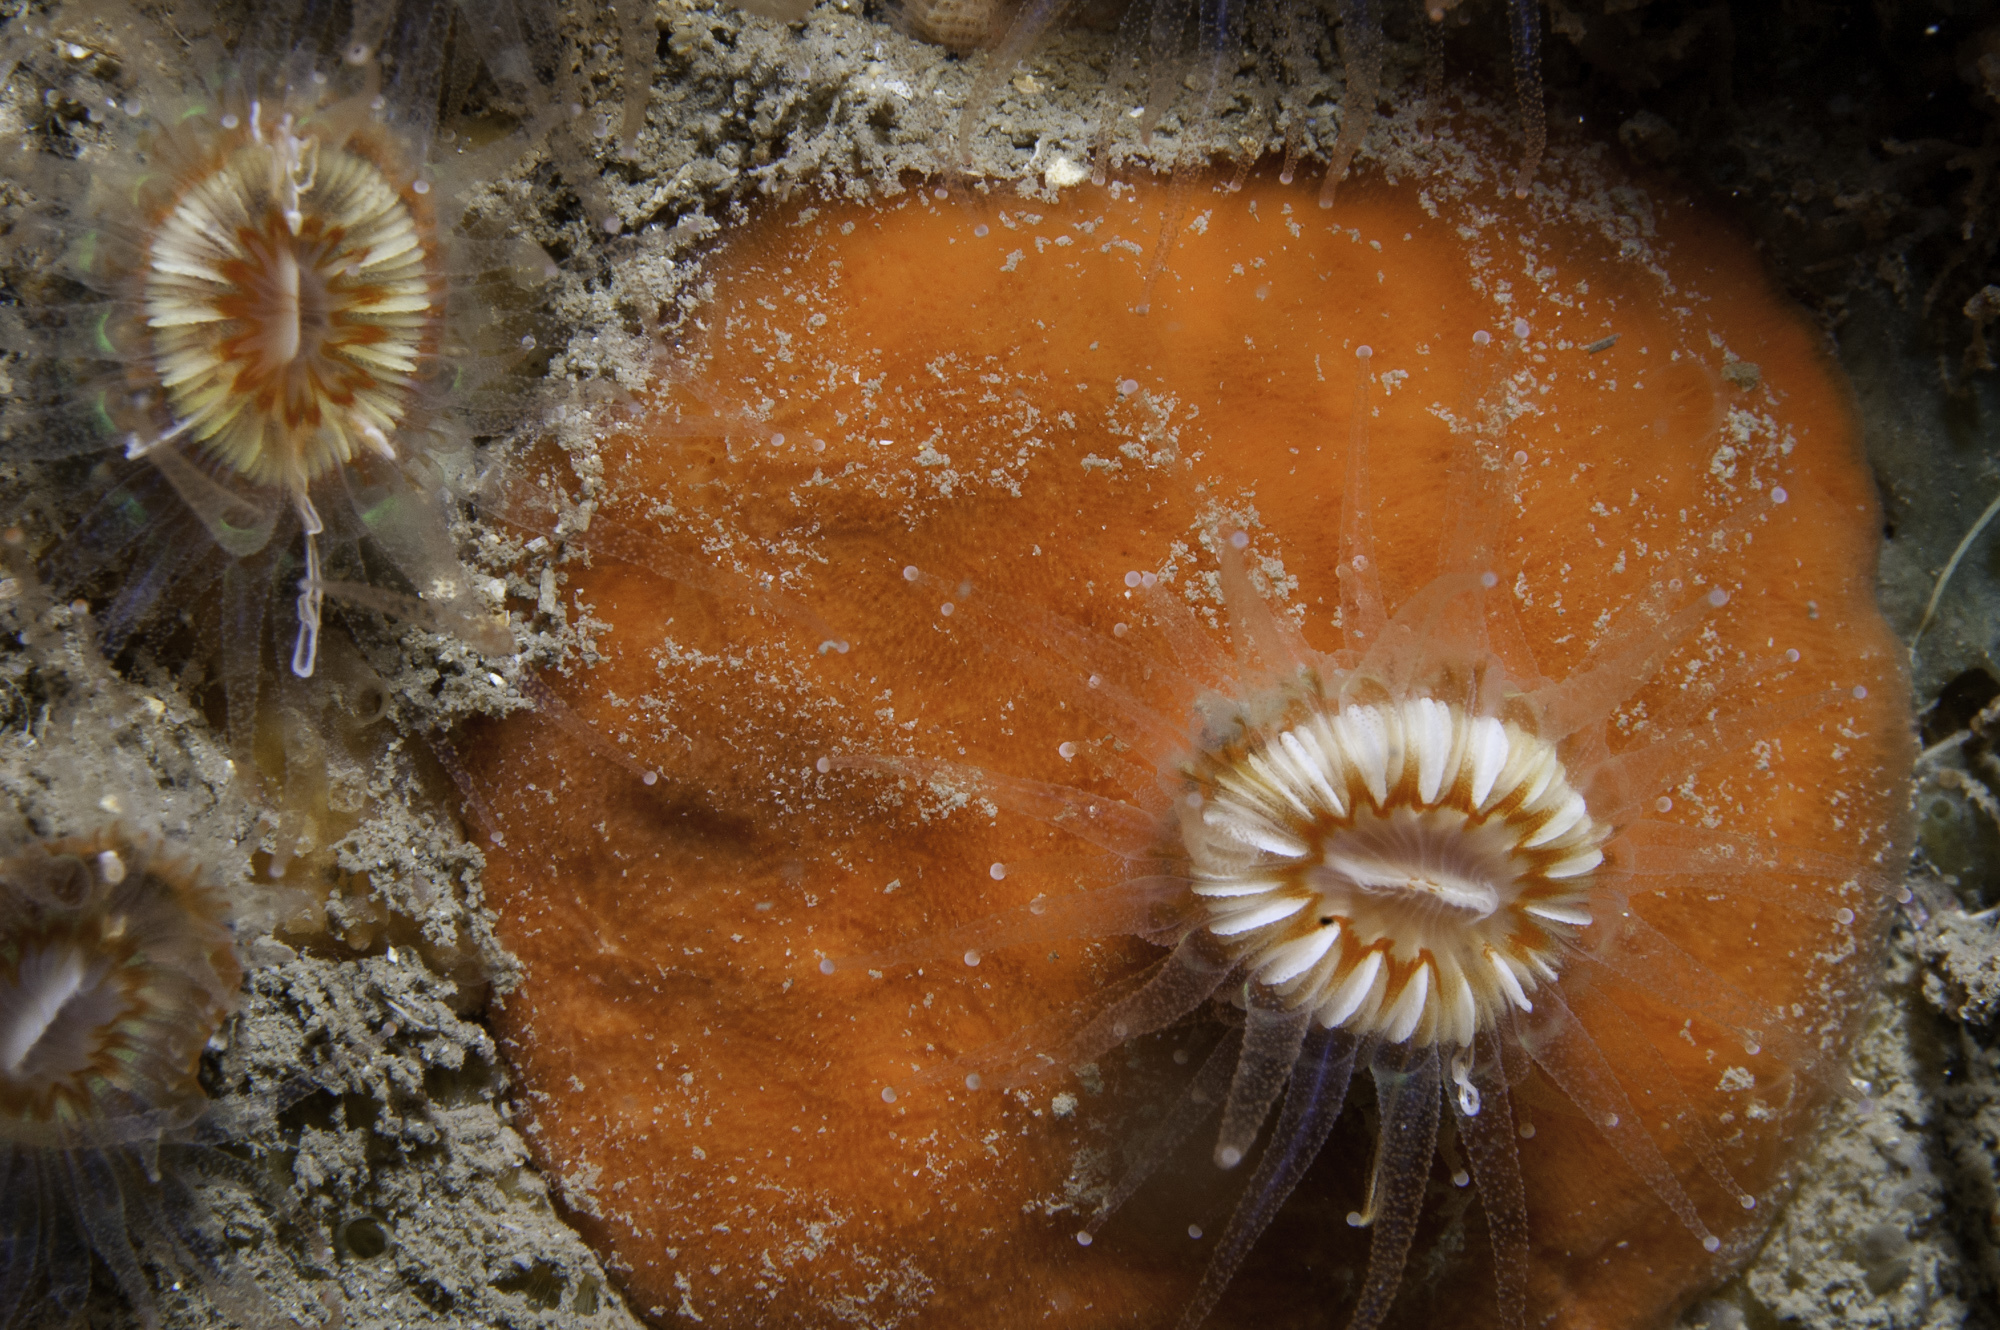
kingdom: Animalia
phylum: Porifera
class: Demospongiae
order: Poecilosclerida
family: Microcionidae
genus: Clathria
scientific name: Clathria strepsitoxa
